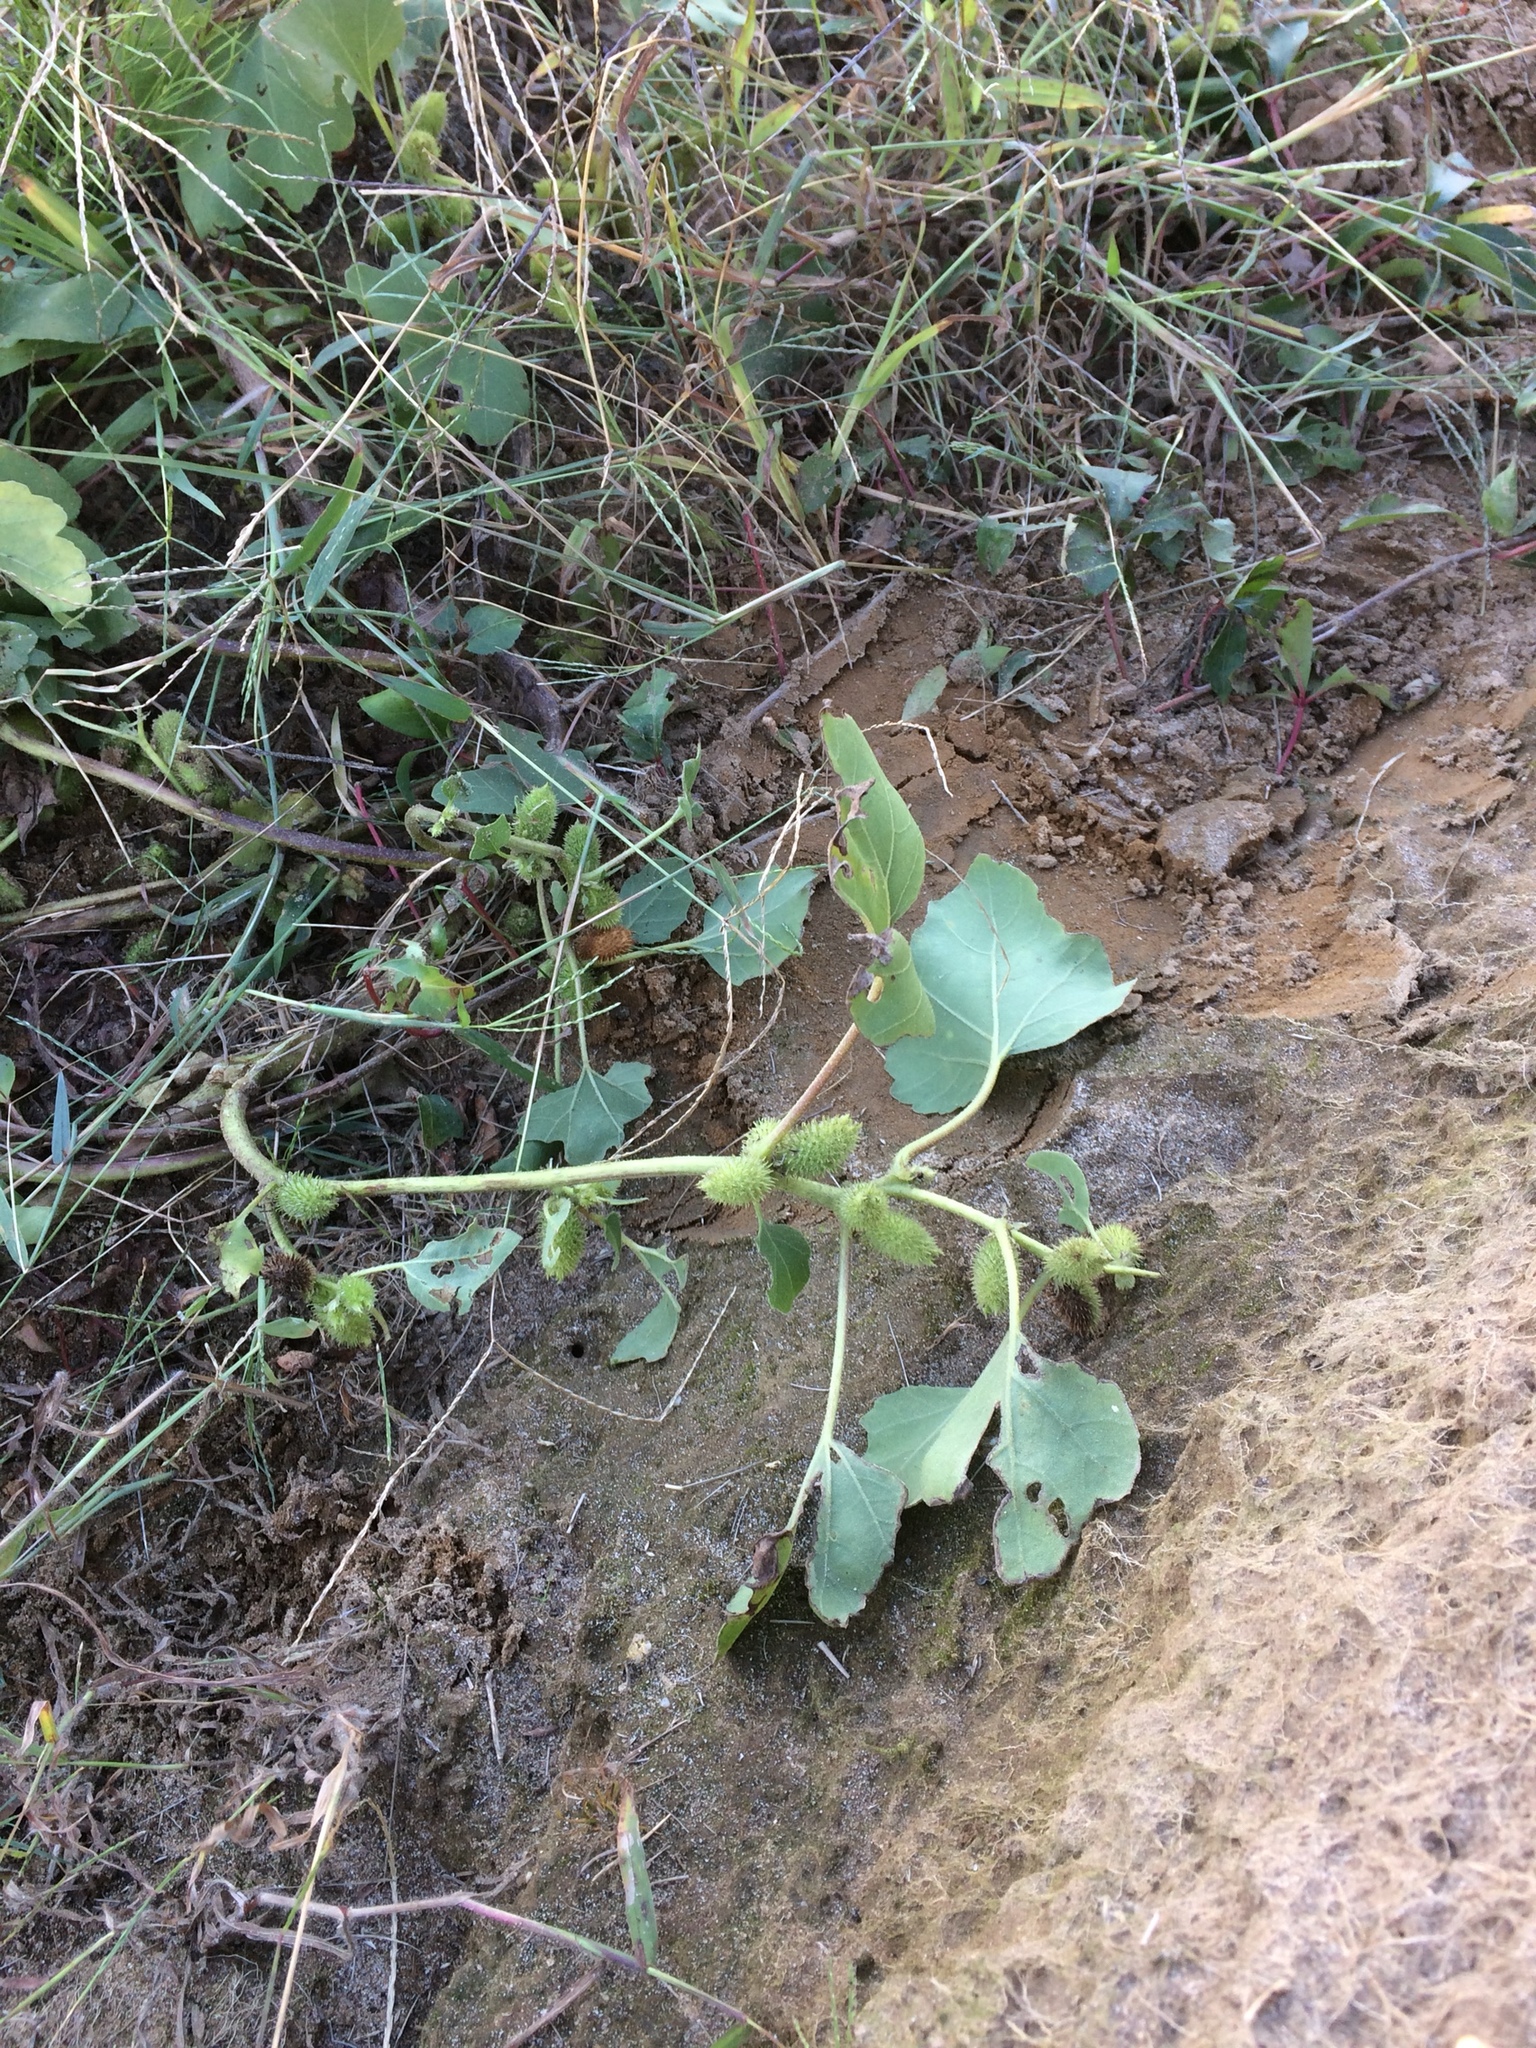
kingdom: Plantae
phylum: Tracheophyta
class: Magnoliopsida
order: Asterales
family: Asteraceae
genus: Xanthium
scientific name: Xanthium strumarium
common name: Rough cocklebur
